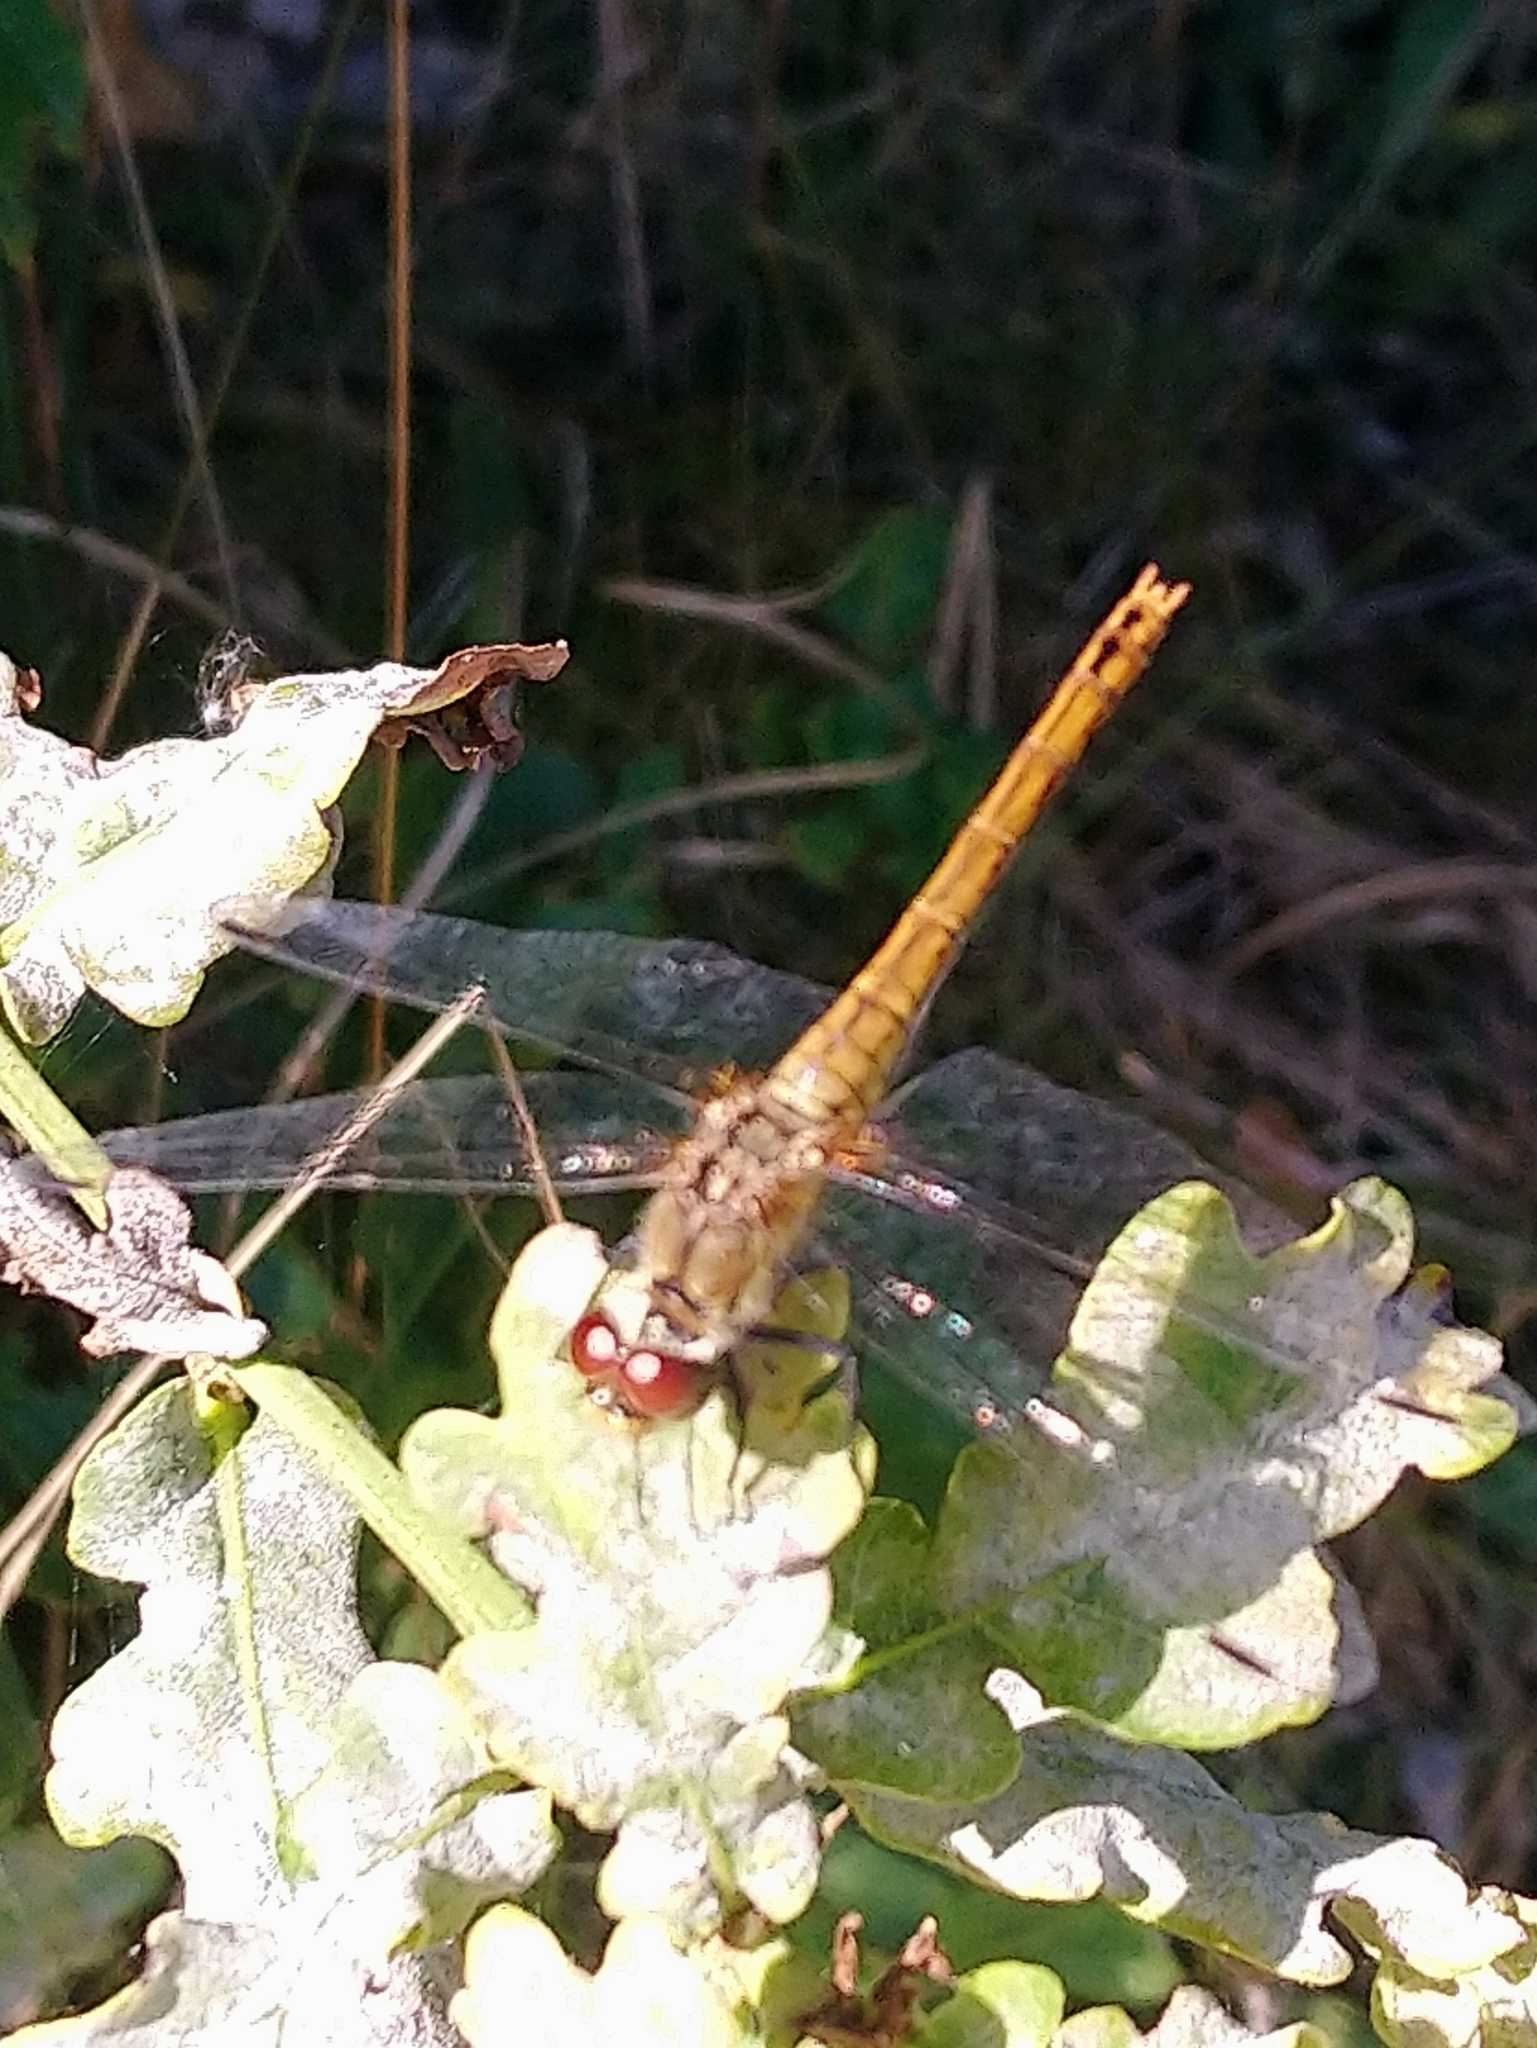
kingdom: Animalia
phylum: Arthropoda
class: Insecta
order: Odonata
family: Libellulidae
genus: Sympetrum
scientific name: Sympetrum sanguineum
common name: Ruddy darter
